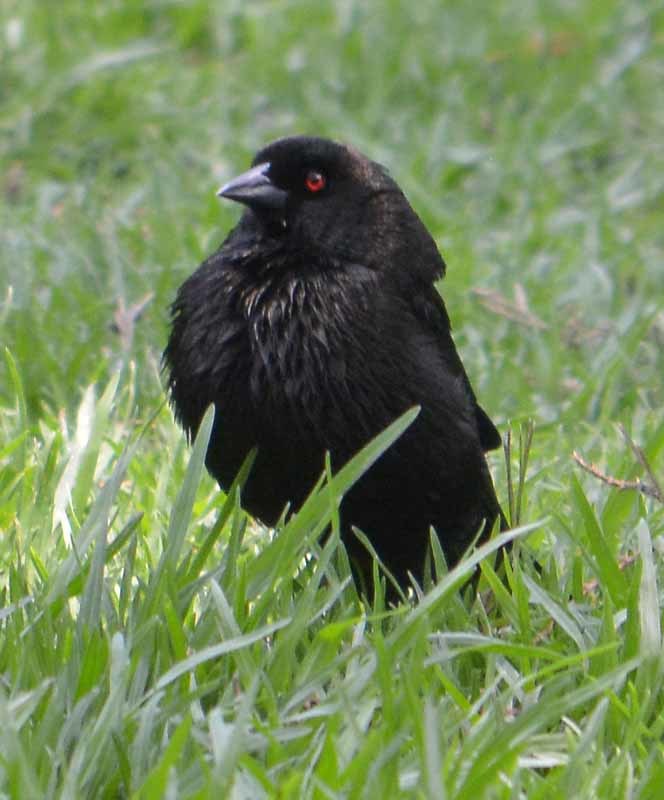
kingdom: Animalia
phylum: Chordata
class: Aves
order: Passeriformes
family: Icteridae
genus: Molothrus
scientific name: Molothrus aeneus
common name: Bronzed cowbird
